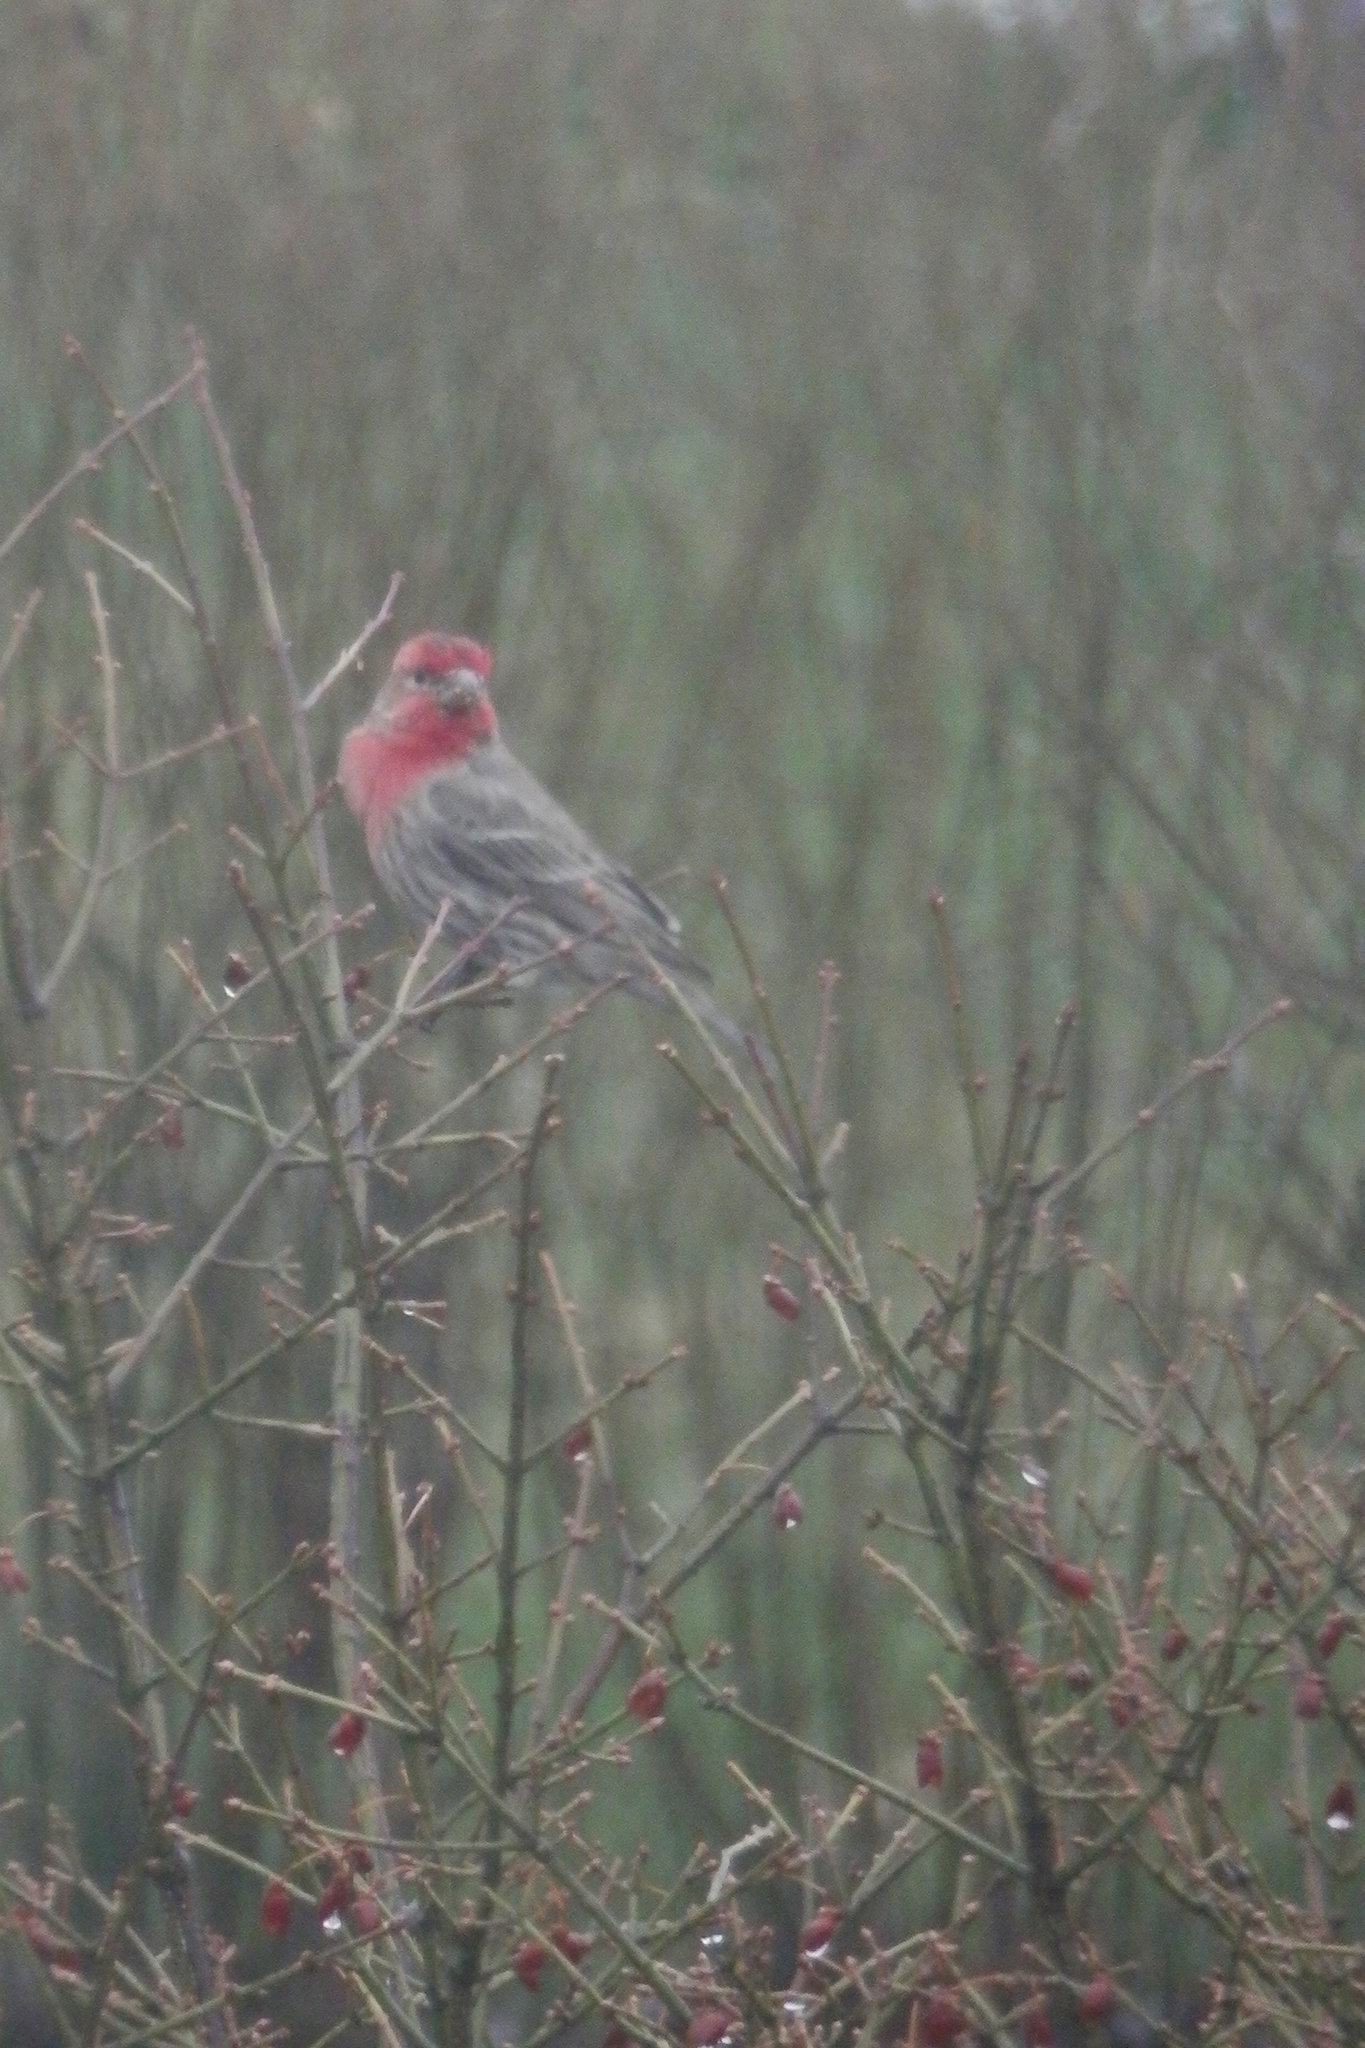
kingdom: Animalia
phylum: Chordata
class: Aves
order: Passeriformes
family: Fringillidae
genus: Haemorhous
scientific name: Haemorhous mexicanus
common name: House finch
